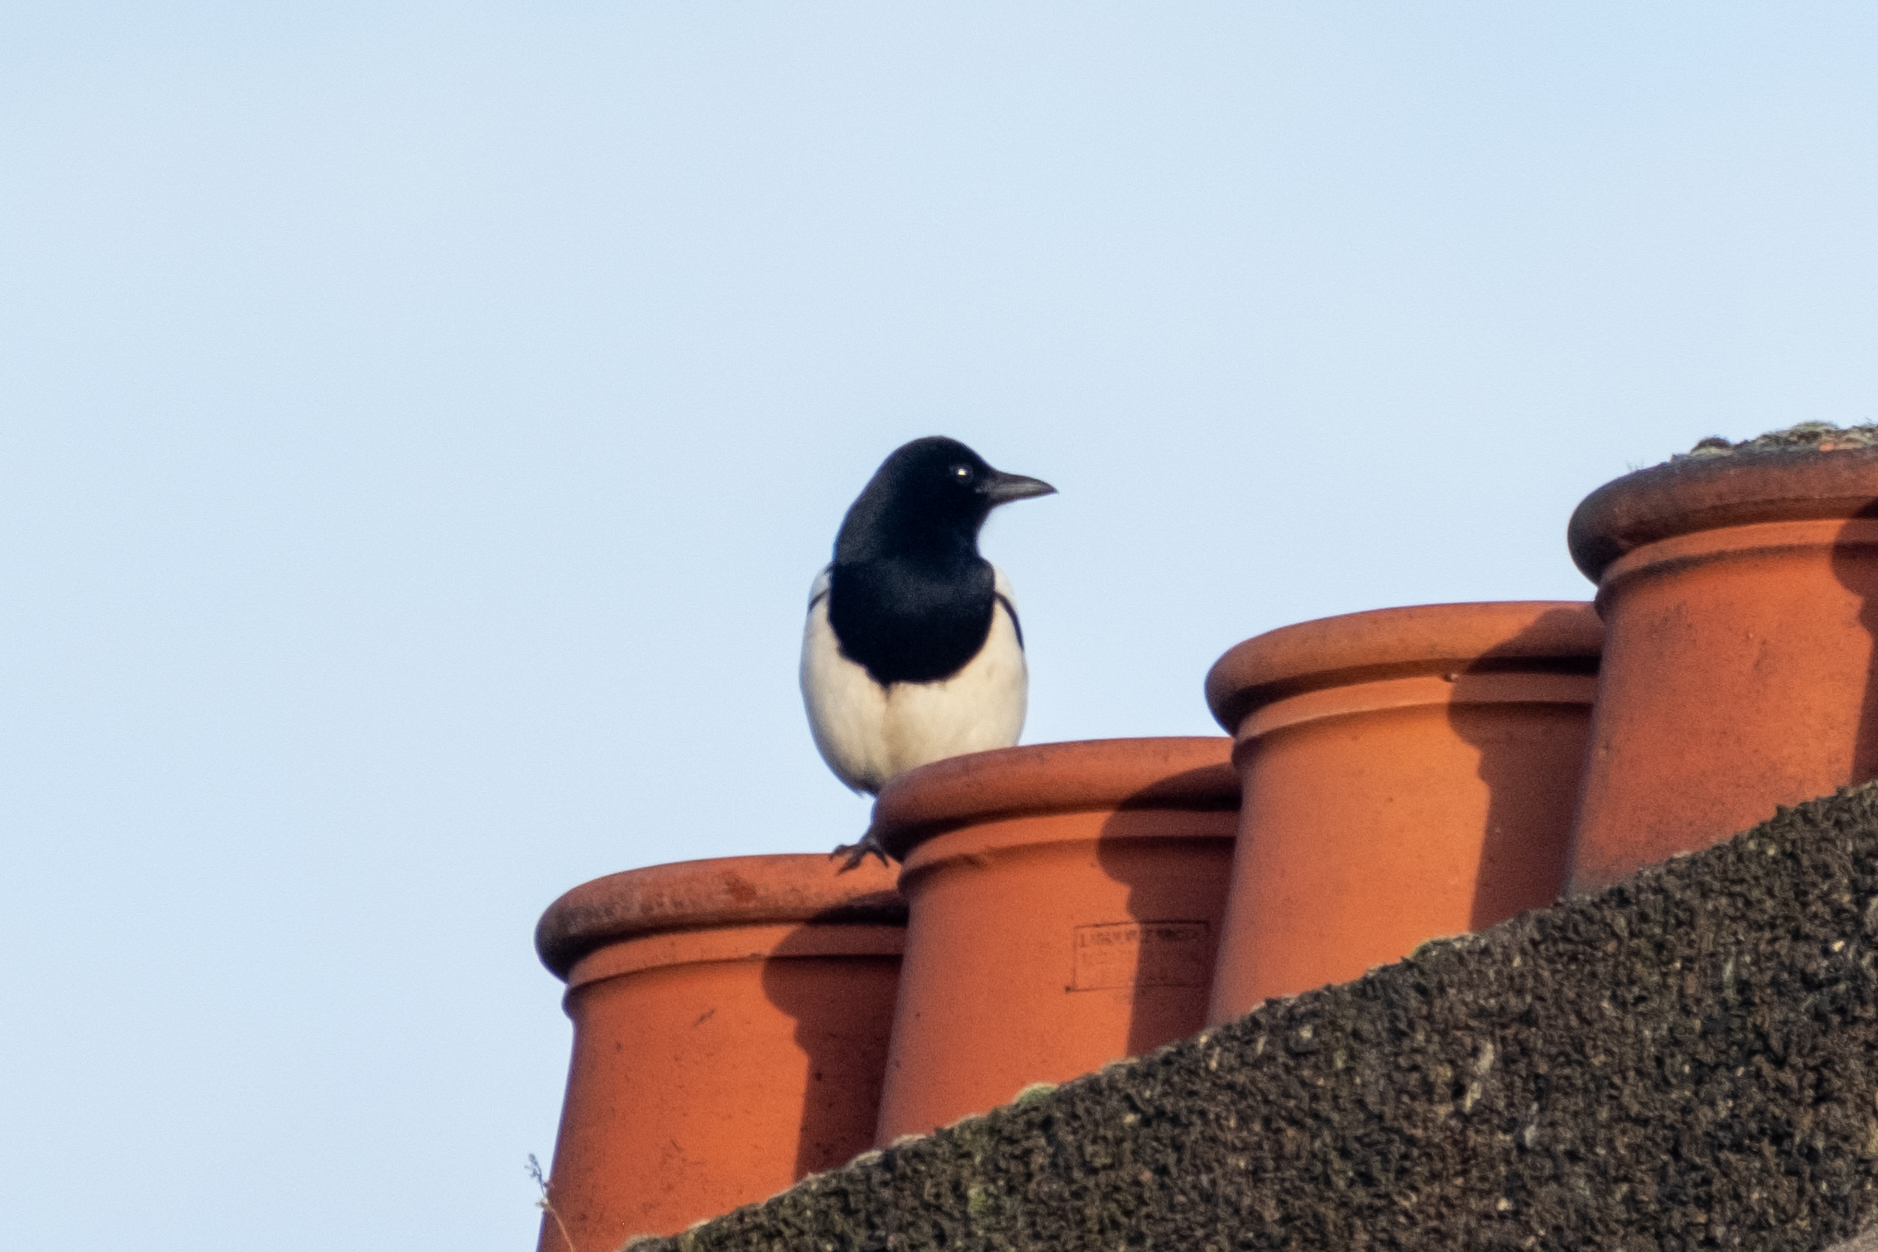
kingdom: Animalia
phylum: Chordata
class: Aves
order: Passeriformes
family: Corvidae
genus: Pica
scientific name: Pica pica
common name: Eurasian magpie
